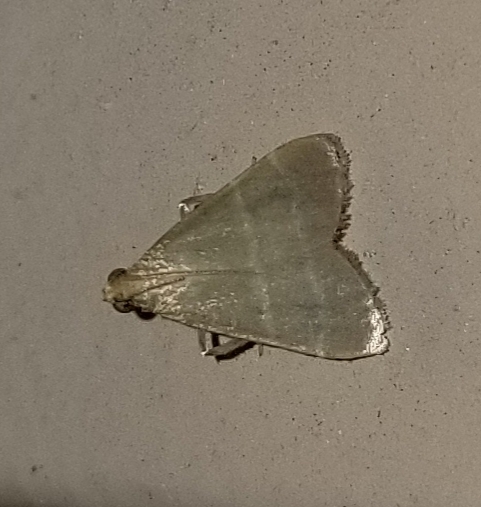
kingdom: Animalia
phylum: Arthropoda
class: Insecta
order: Lepidoptera
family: Pyralidae
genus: Arta
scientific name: Arta olivalis
